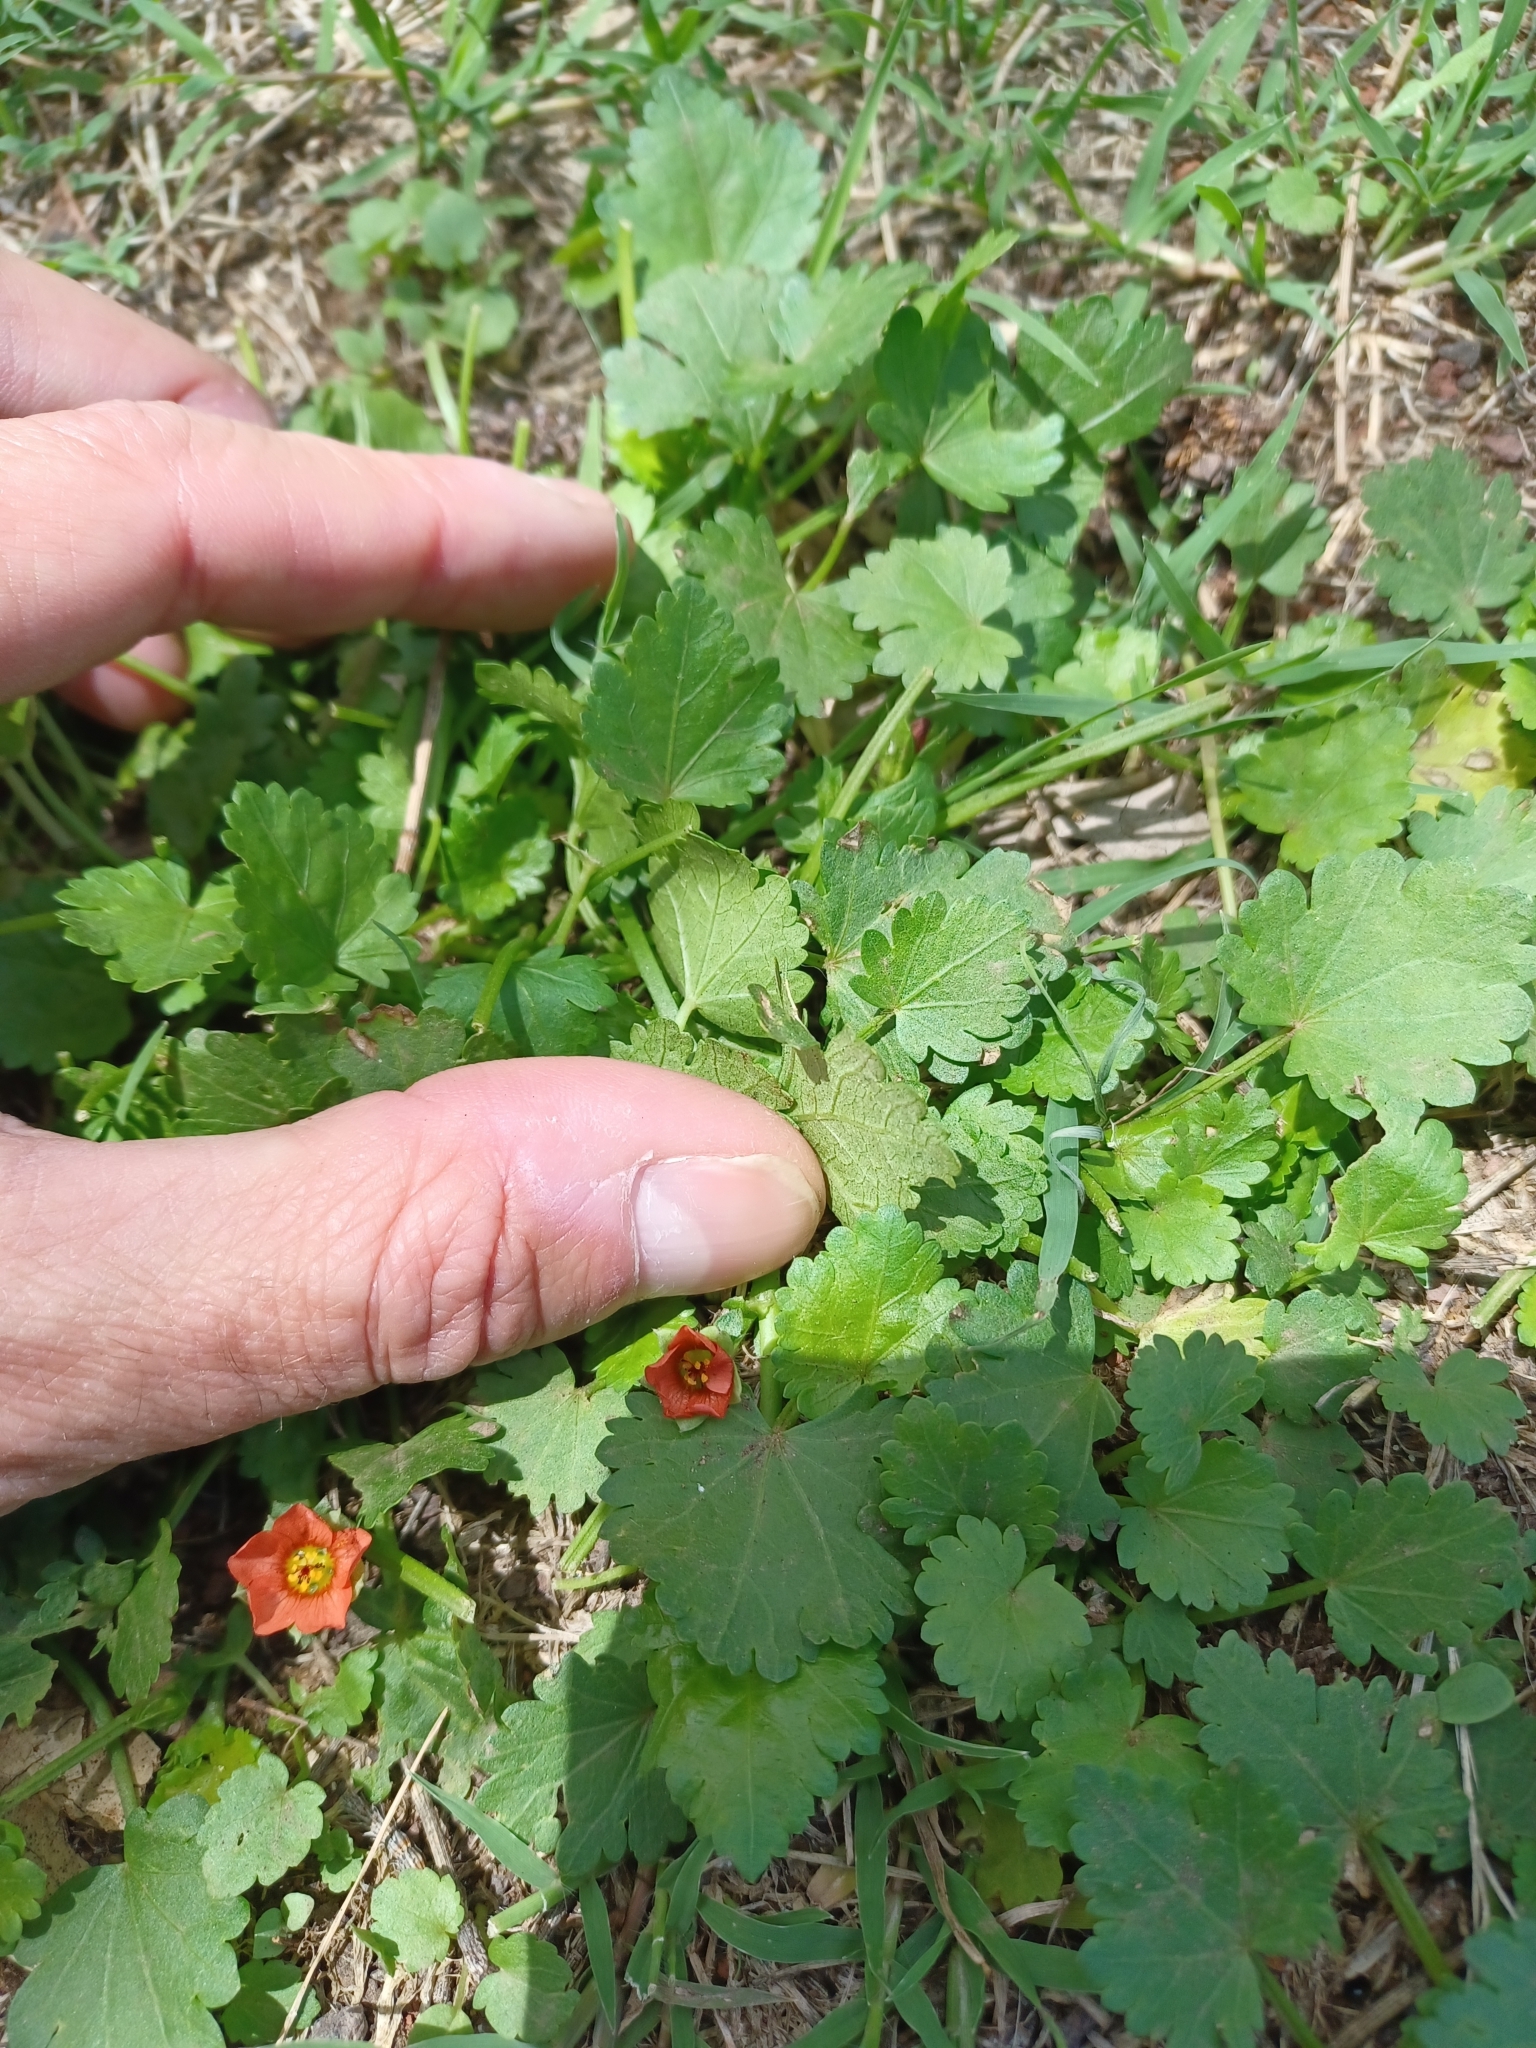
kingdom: Plantae
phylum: Tracheophyta
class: Magnoliopsida
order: Malvales
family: Malvaceae
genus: Modiola
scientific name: Modiola caroliniana
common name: Carolina bristlemallow
